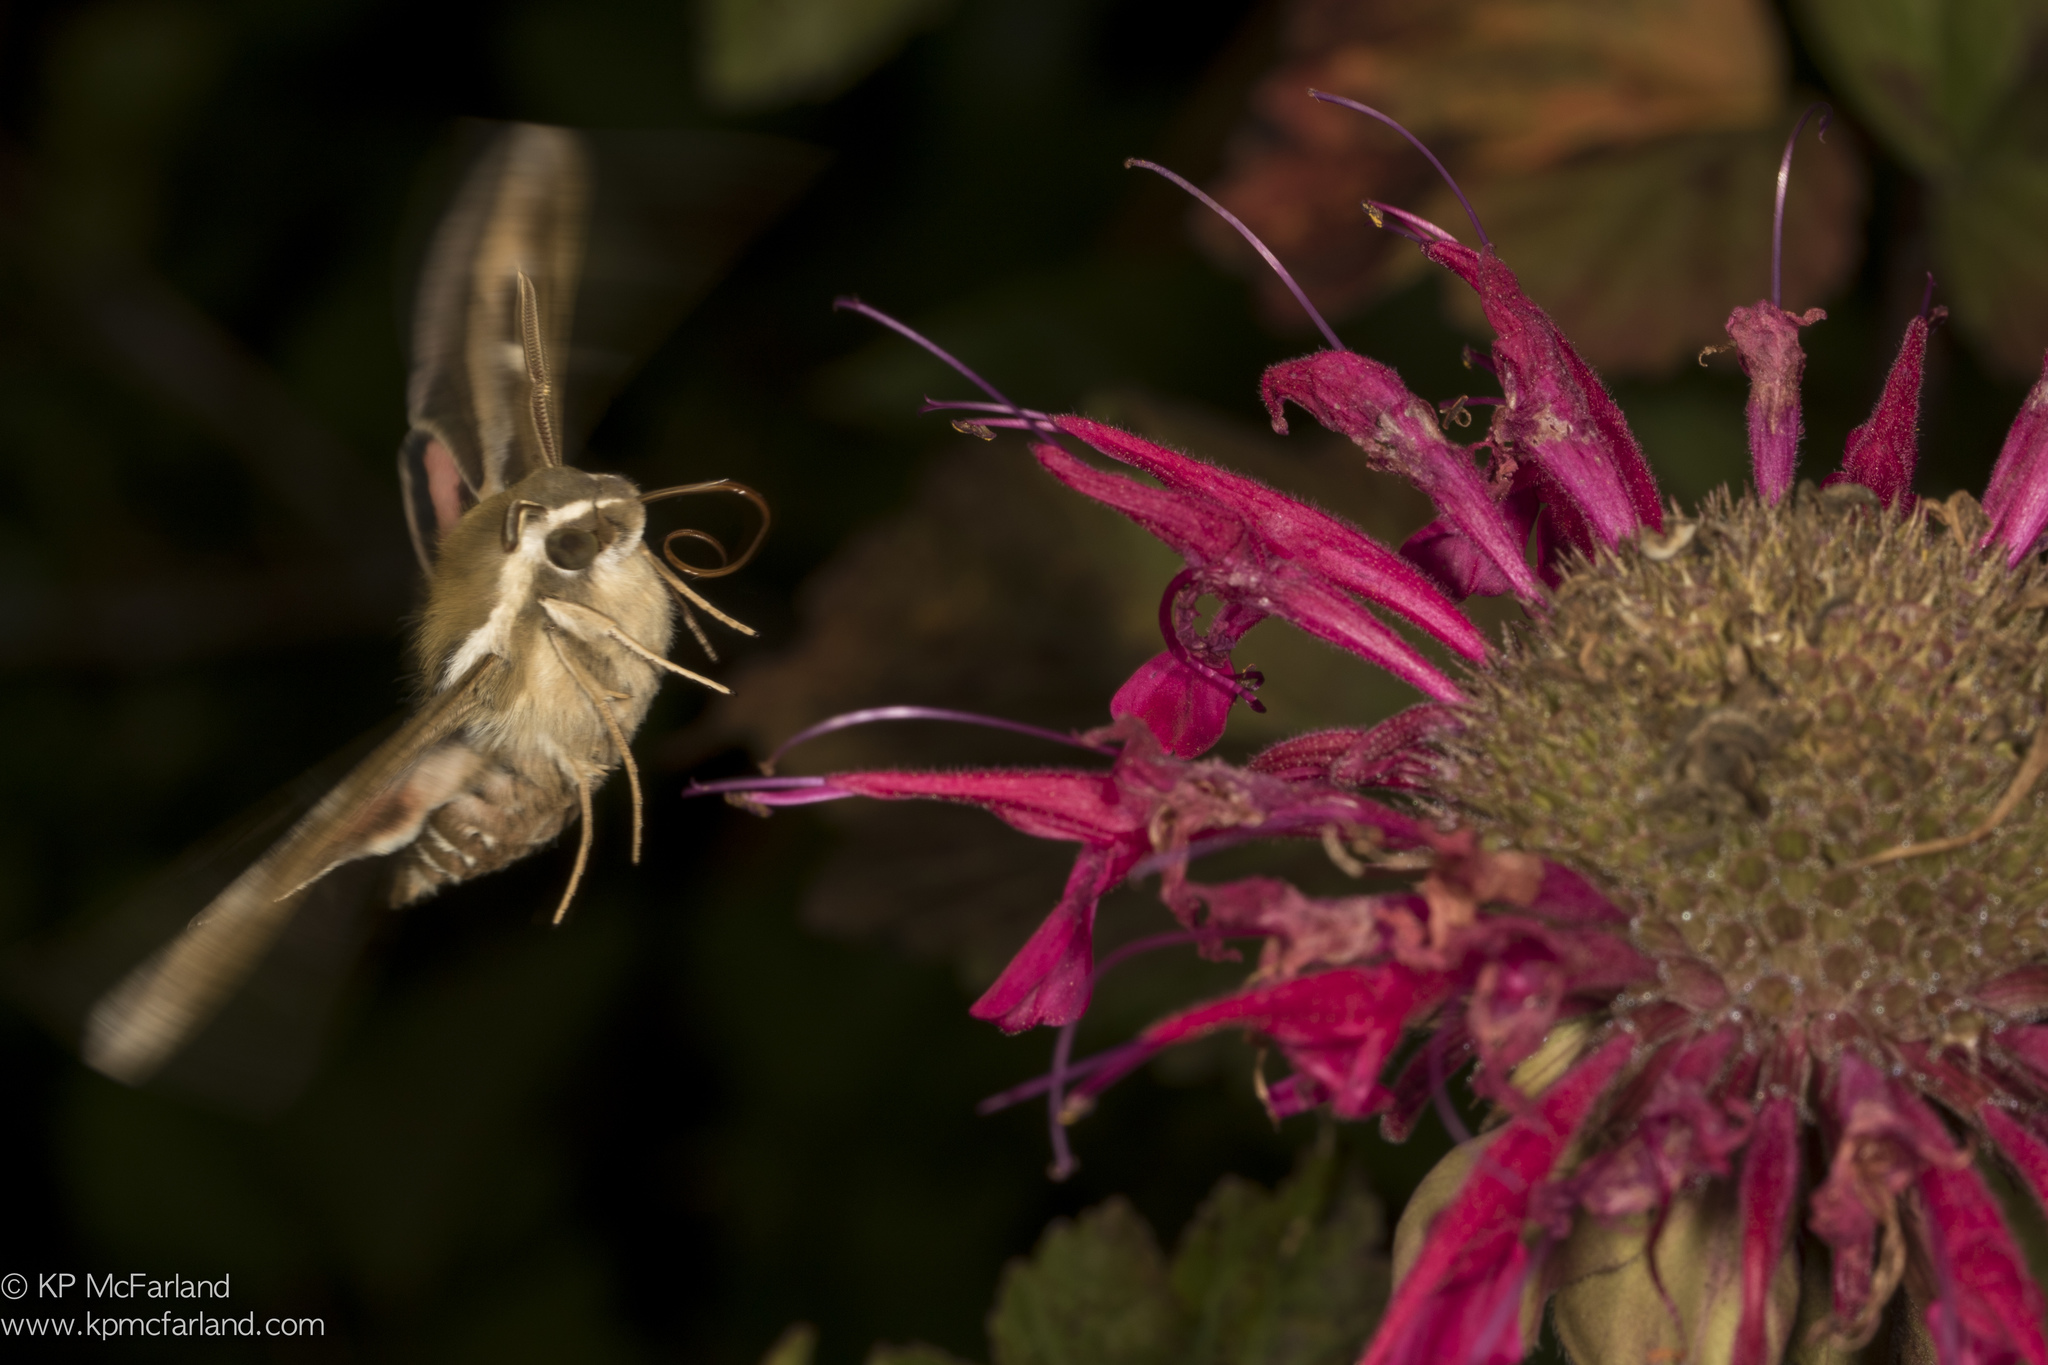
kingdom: Animalia
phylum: Arthropoda
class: Insecta
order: Lepidoptera
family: Sphingidae
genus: Hyles
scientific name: Hyles gallii
